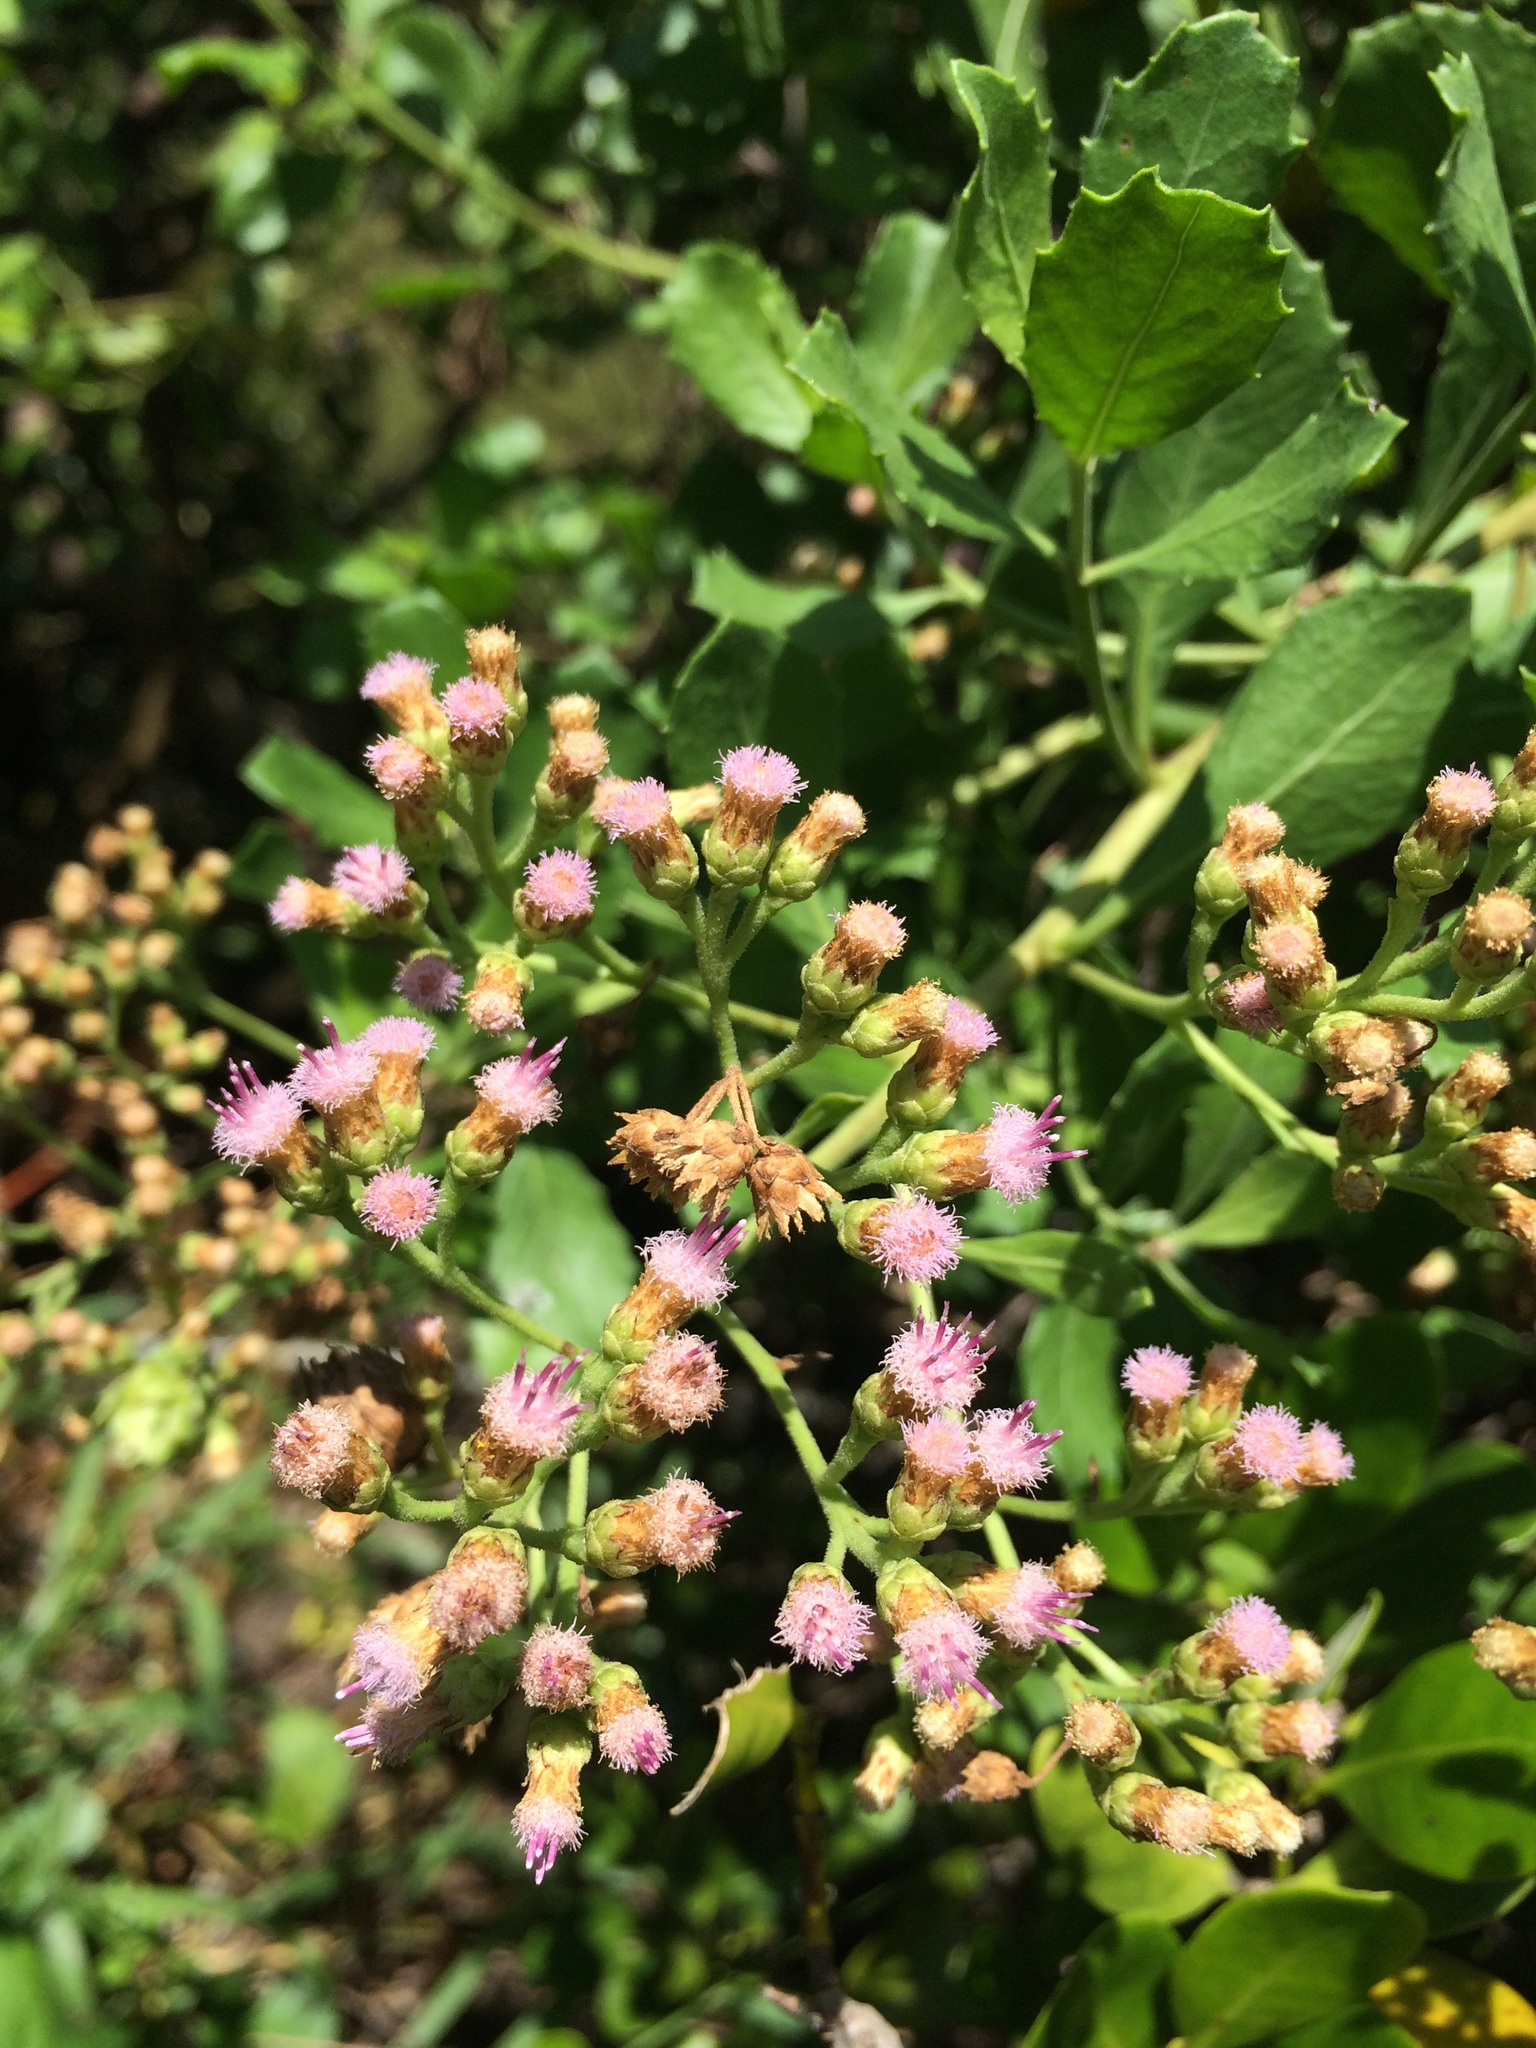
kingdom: Plantae
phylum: Tracheophyta
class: Magnoliopsida
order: Asterales
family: Asteraceae
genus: Pluchea
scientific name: Pluchea indica
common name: Indian fleabane
